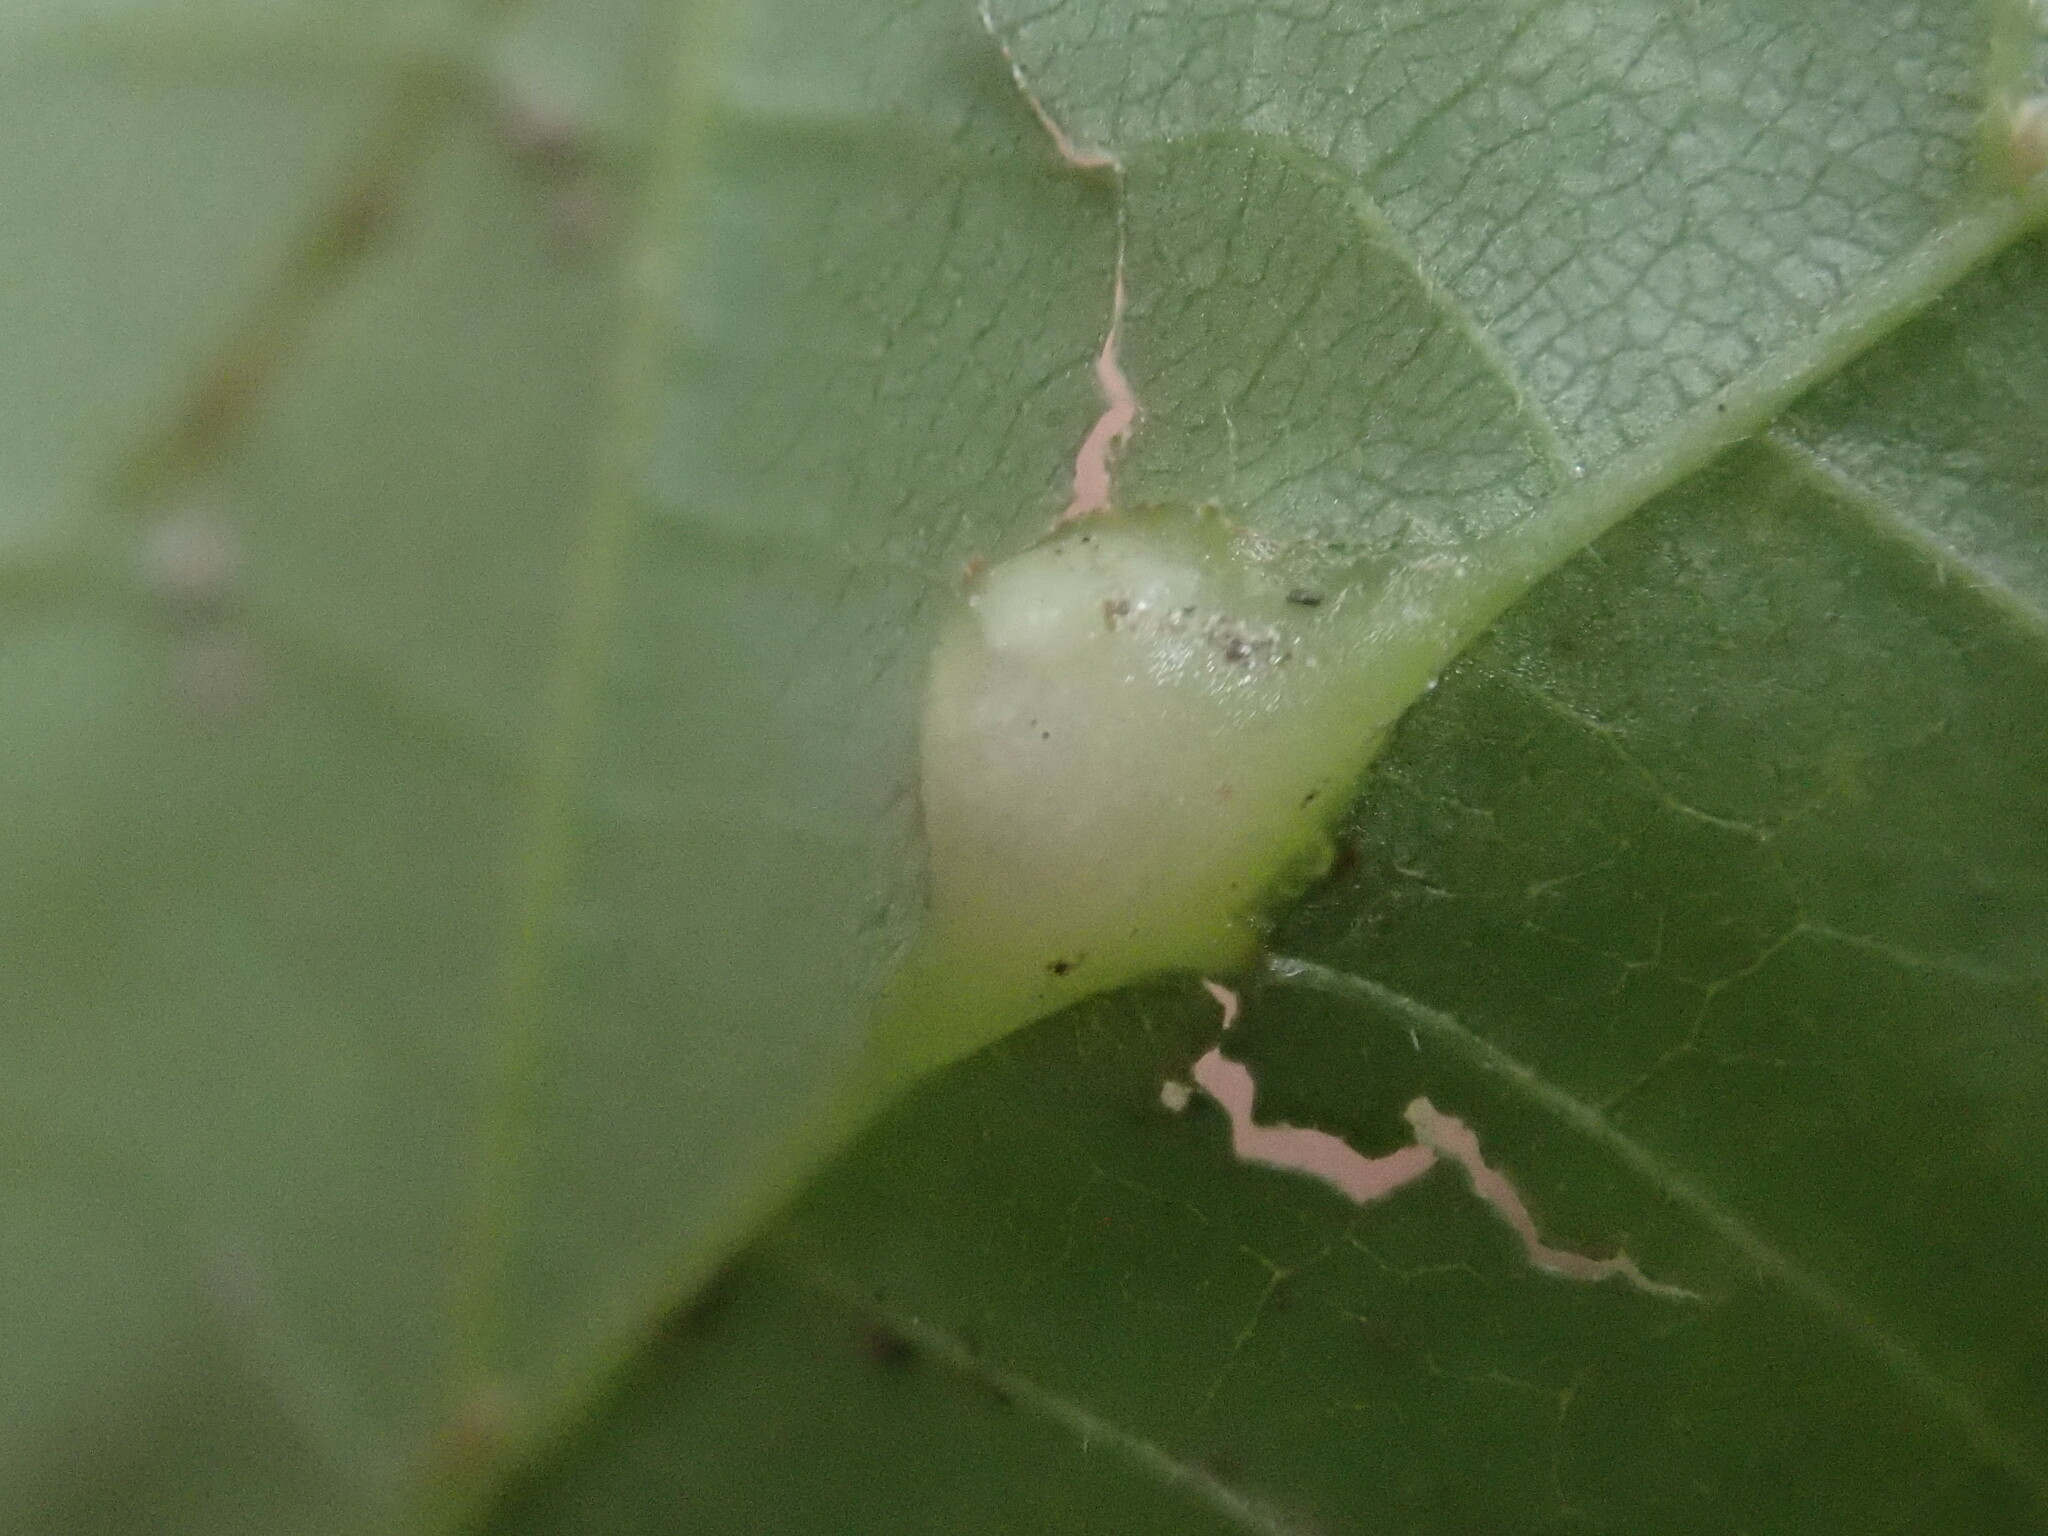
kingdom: Animalia
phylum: Arthropoda
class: Insecta
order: Diptera
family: Cecidomyiidae
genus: Contarinia
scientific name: Contarinia verrucicola
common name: Linden wart gall midge
